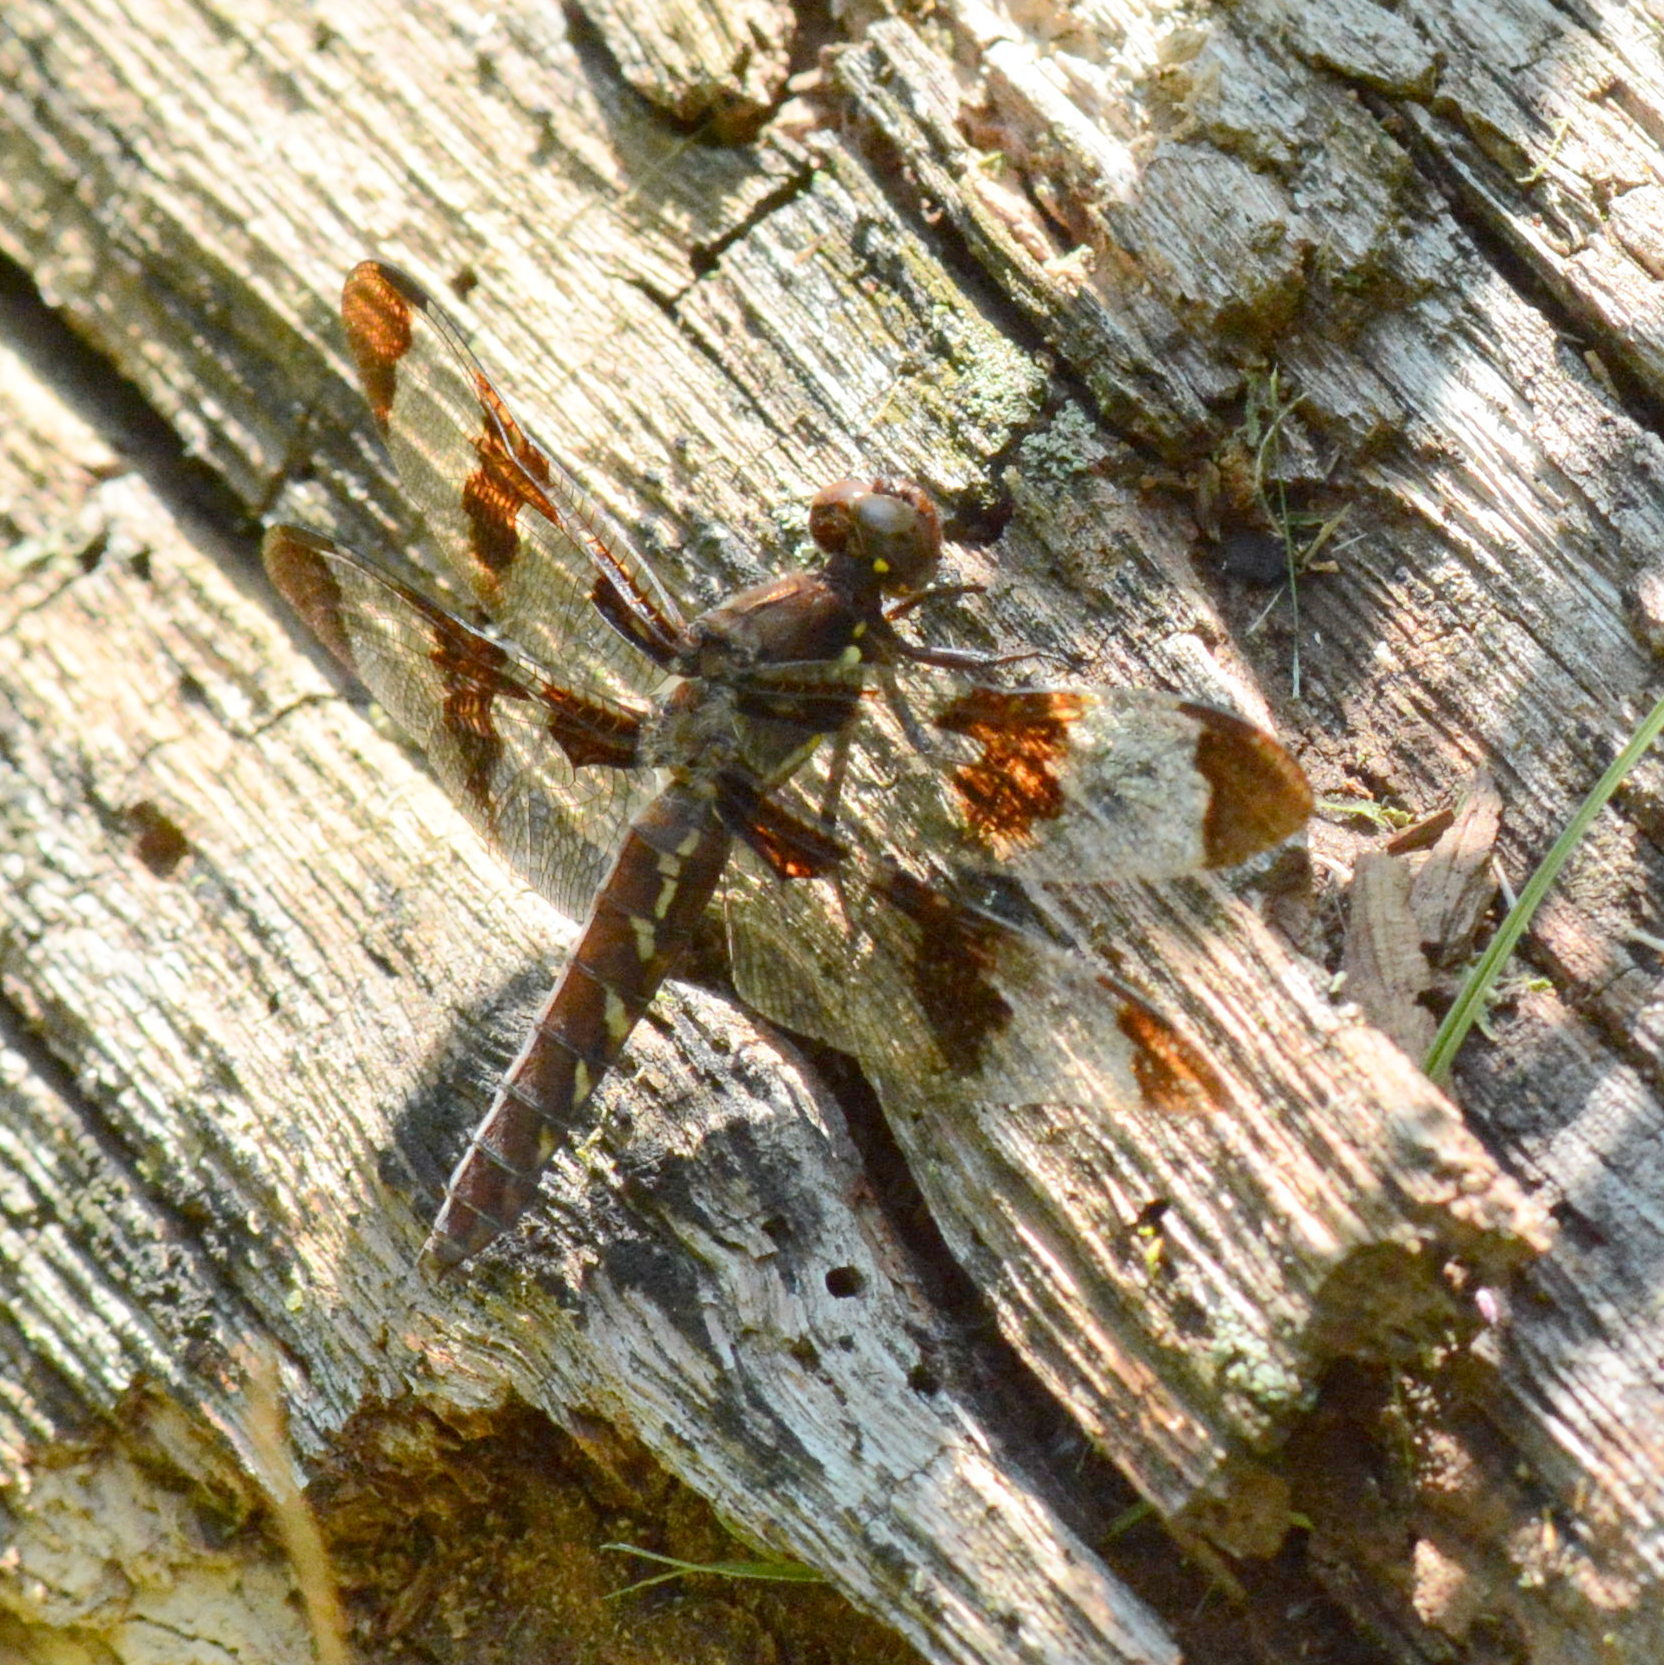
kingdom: Animalia
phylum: Arthropoda
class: Insecta
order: Odonata
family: Libellulidae
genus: Plathemis
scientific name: Plathemis lydia
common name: Common whitetail
